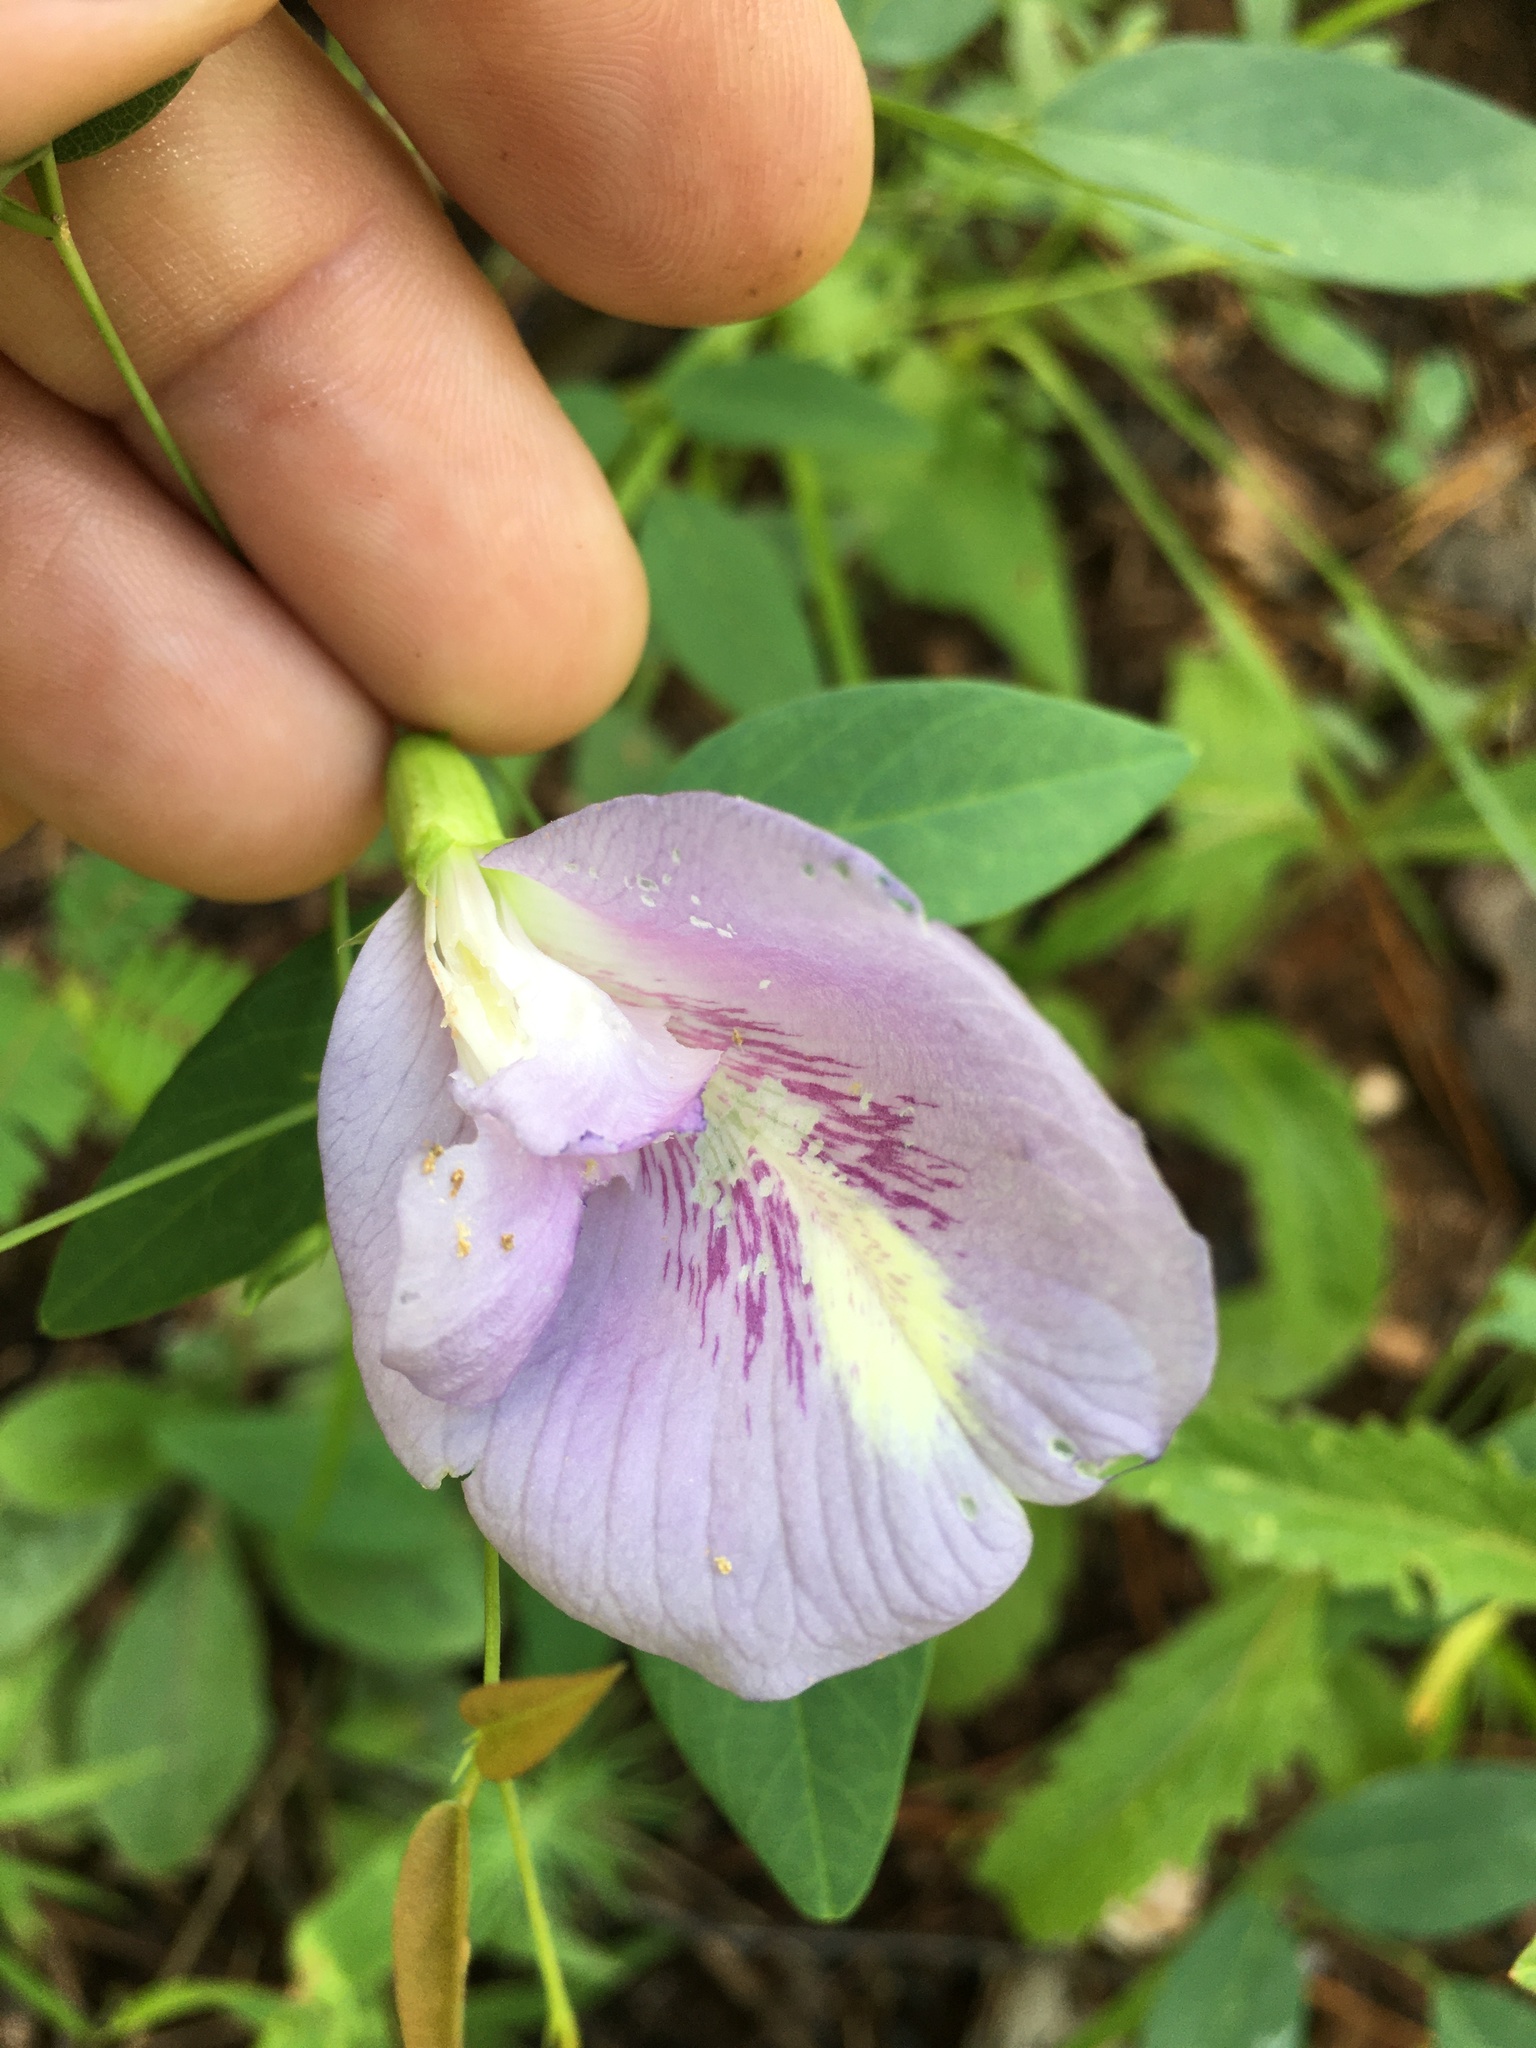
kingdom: Plantae
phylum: Tracheophyta
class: Magnoliopsida
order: Fabales
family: Fabaceae
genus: Clitoria
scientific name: Clitoria mariana
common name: Butterfly-pea
